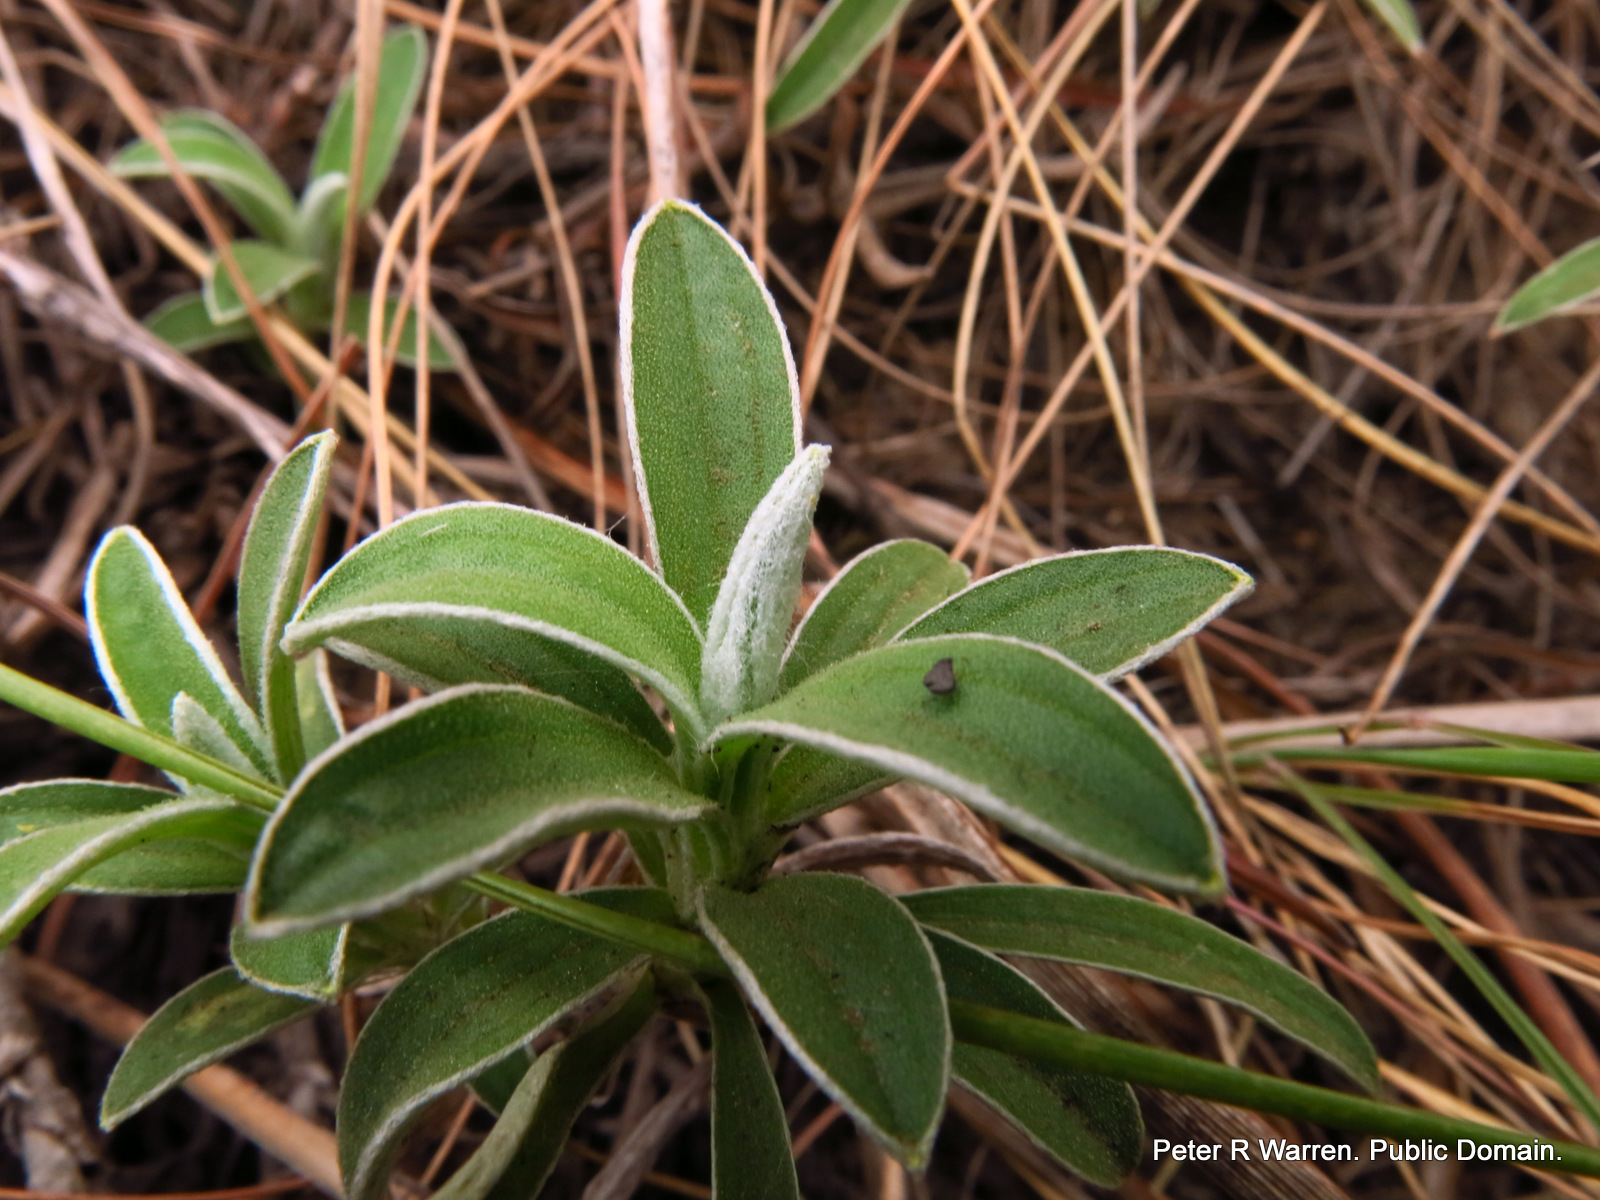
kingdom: Plantae
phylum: Tracheophyta
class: Magnoliopsida
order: Asterales
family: Asteraceae
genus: Helichrysum
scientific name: Helichrysum chionosphaerum
